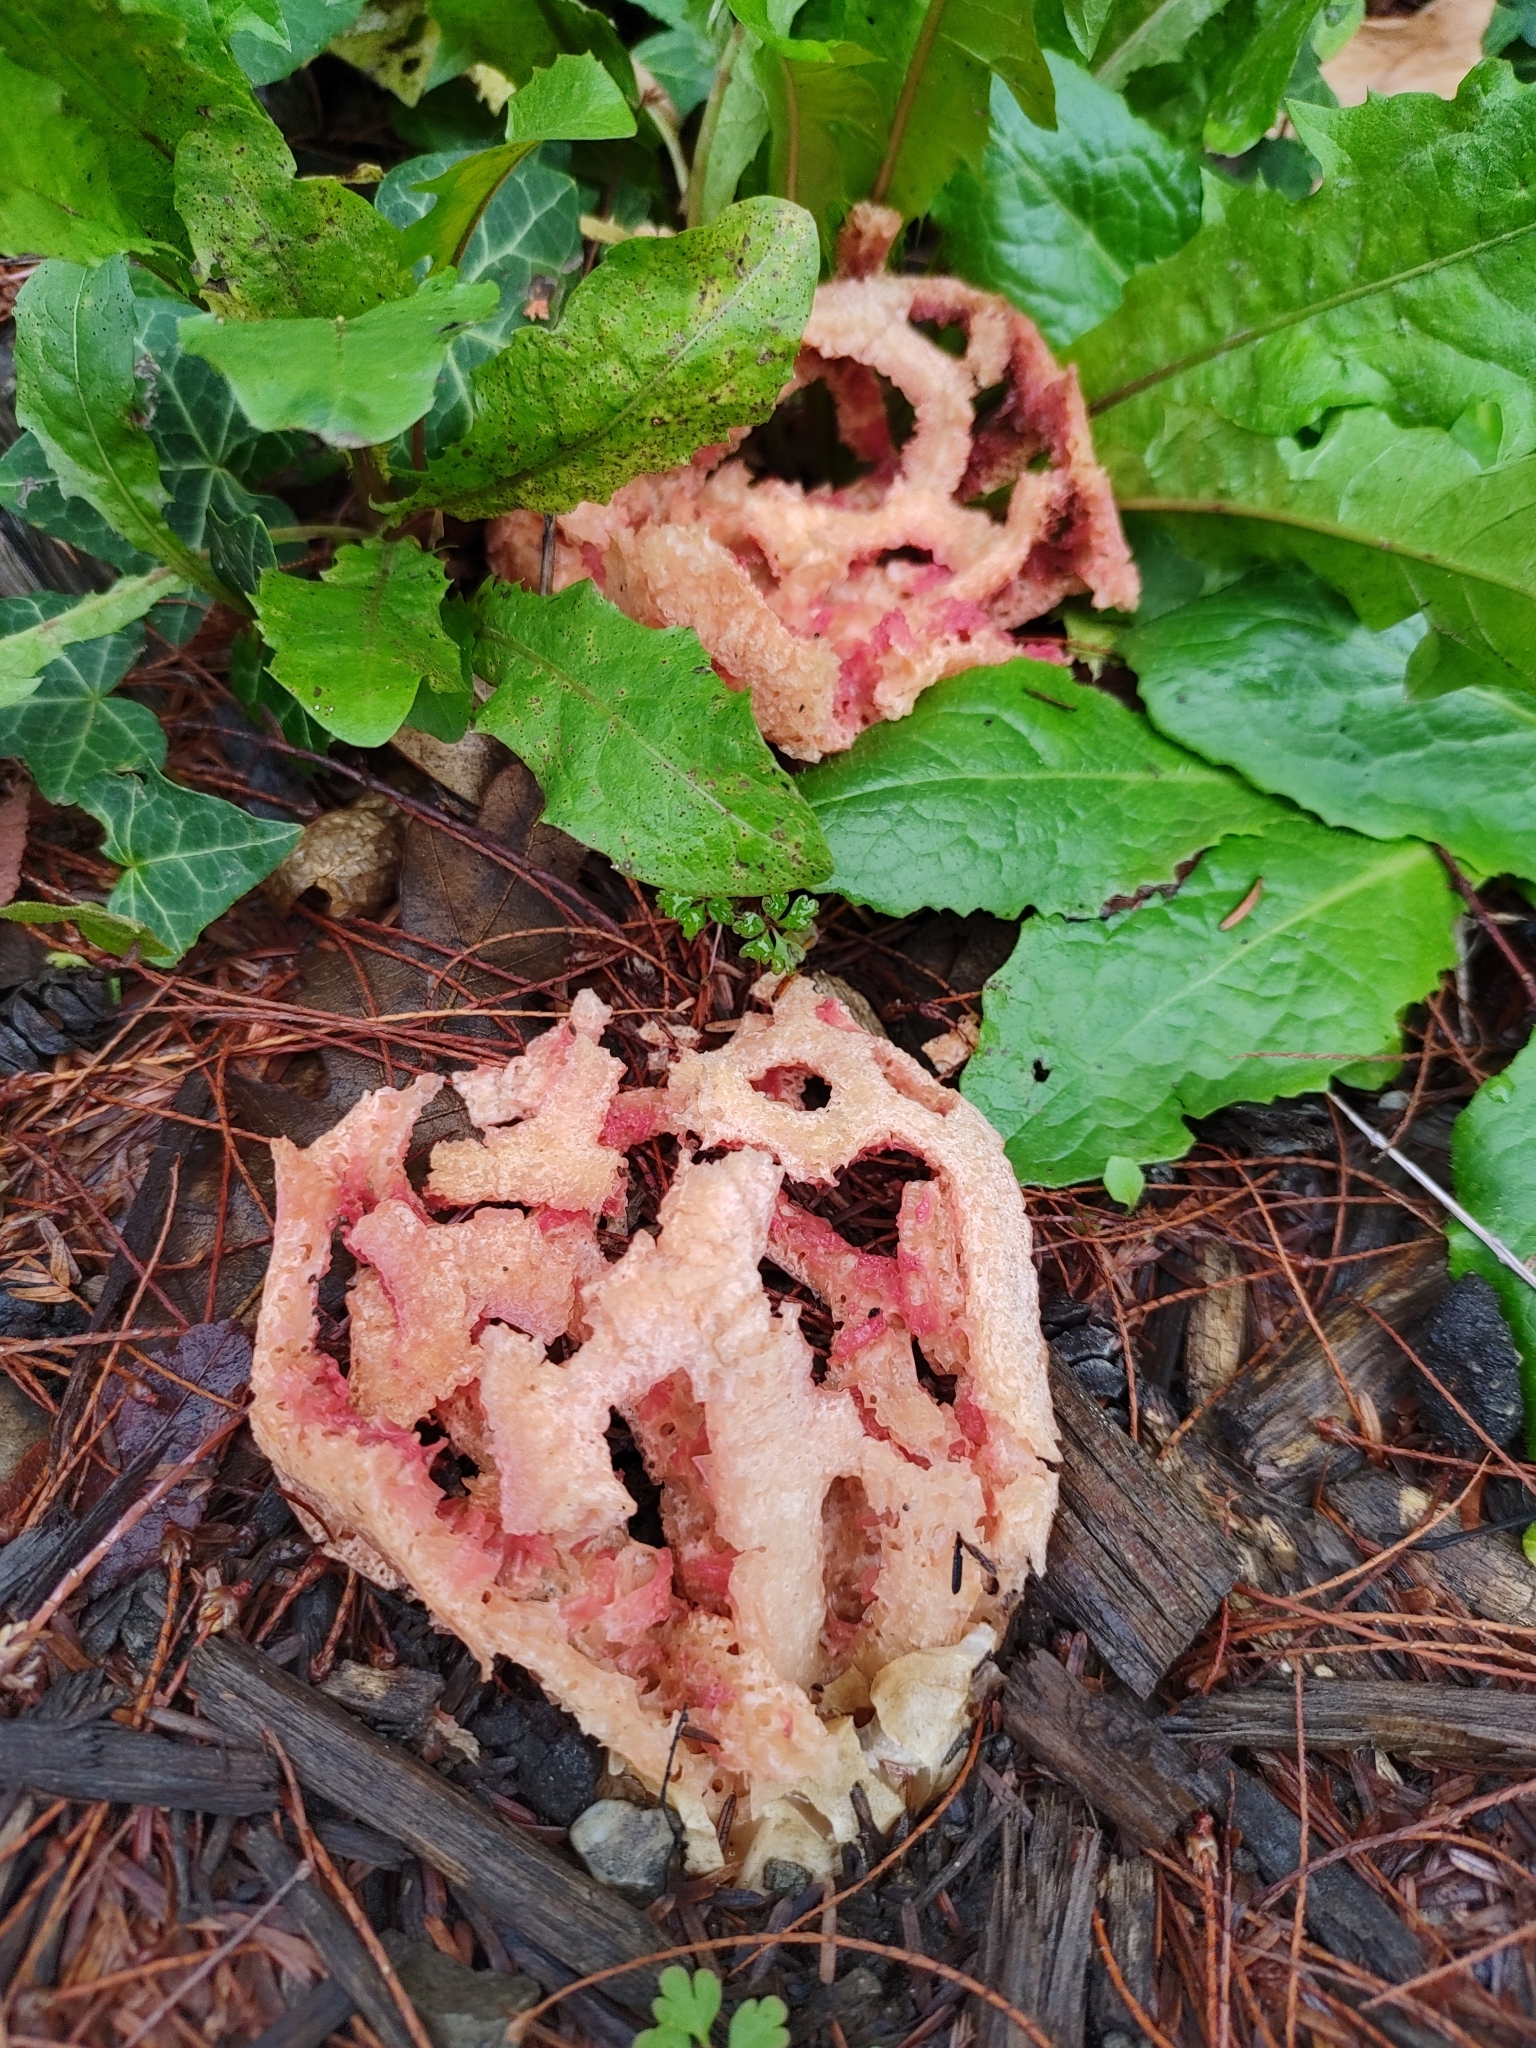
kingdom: Fungi
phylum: Basidiomycota
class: Agaricomycetes
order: Phallales
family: Phallaceae
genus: Clathrus
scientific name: Clathrus ruber
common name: Red cage
